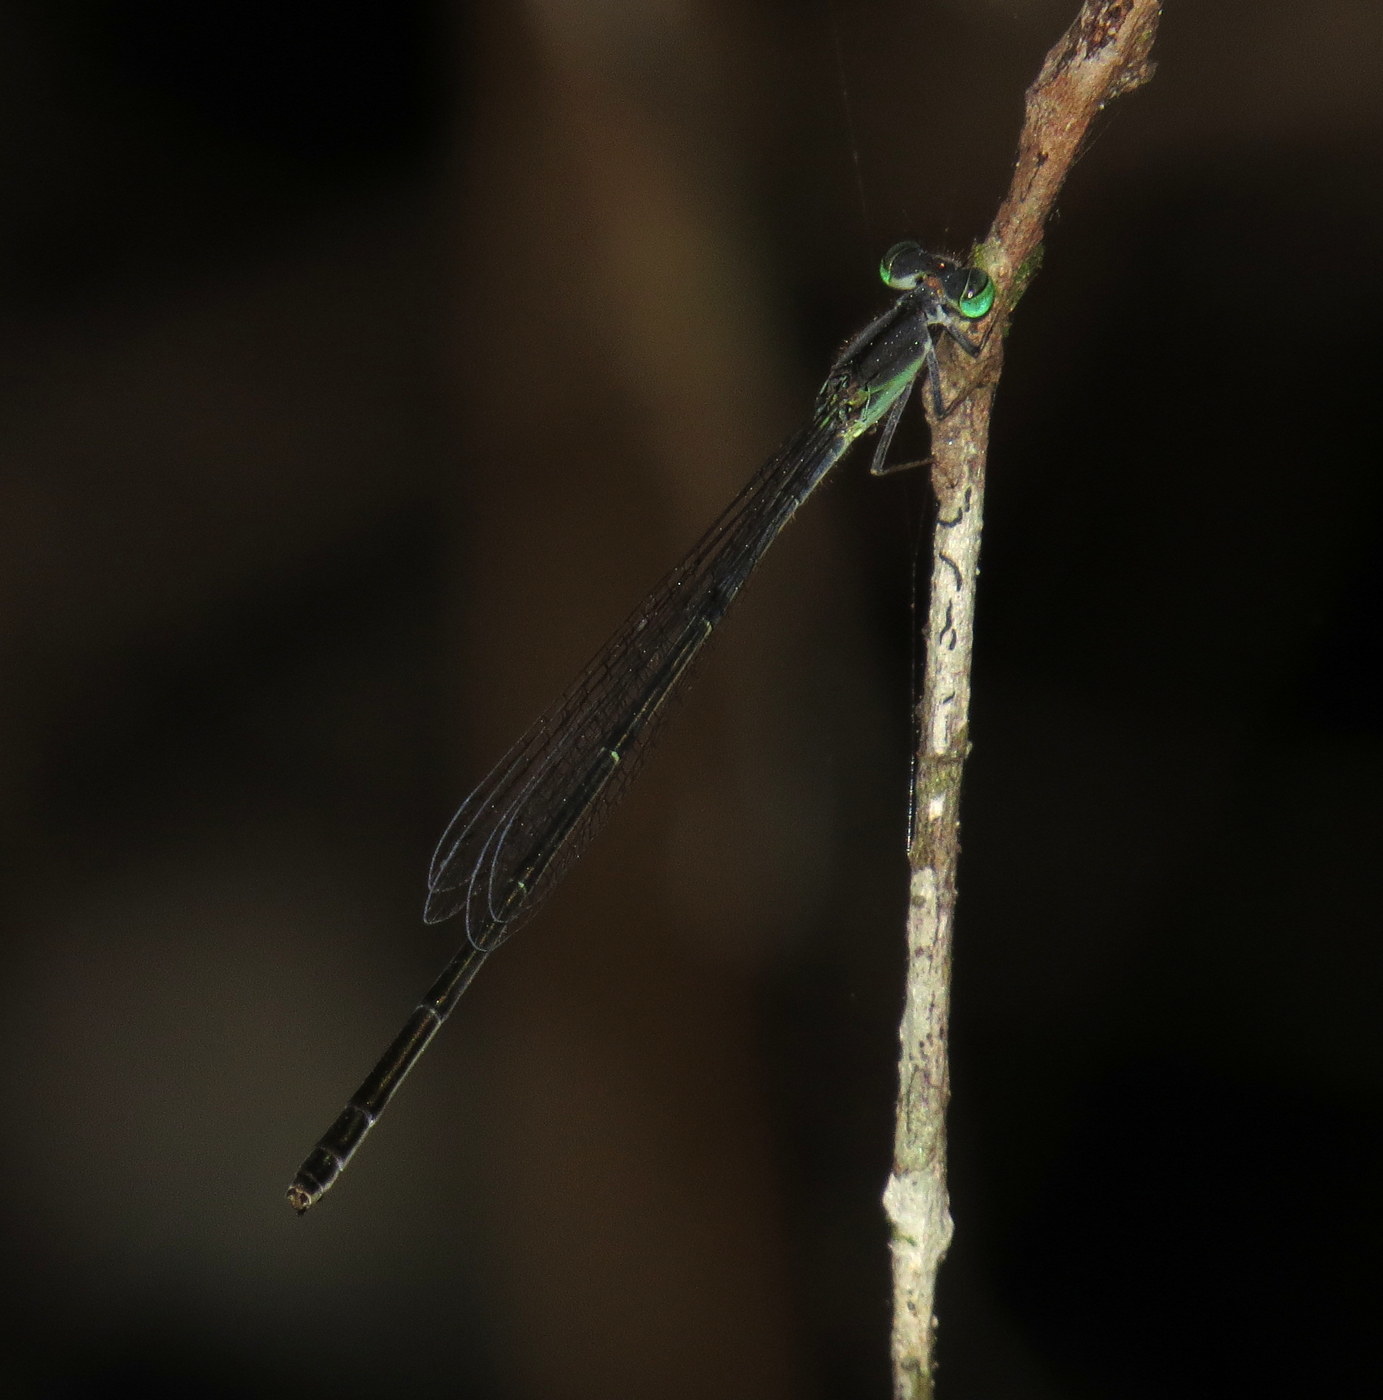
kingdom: Animalia
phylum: Arthropoda
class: Insecta
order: Odonata
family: Coenagrionidae
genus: Ischnura
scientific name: Ischnura prognata
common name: Furtive forktail
